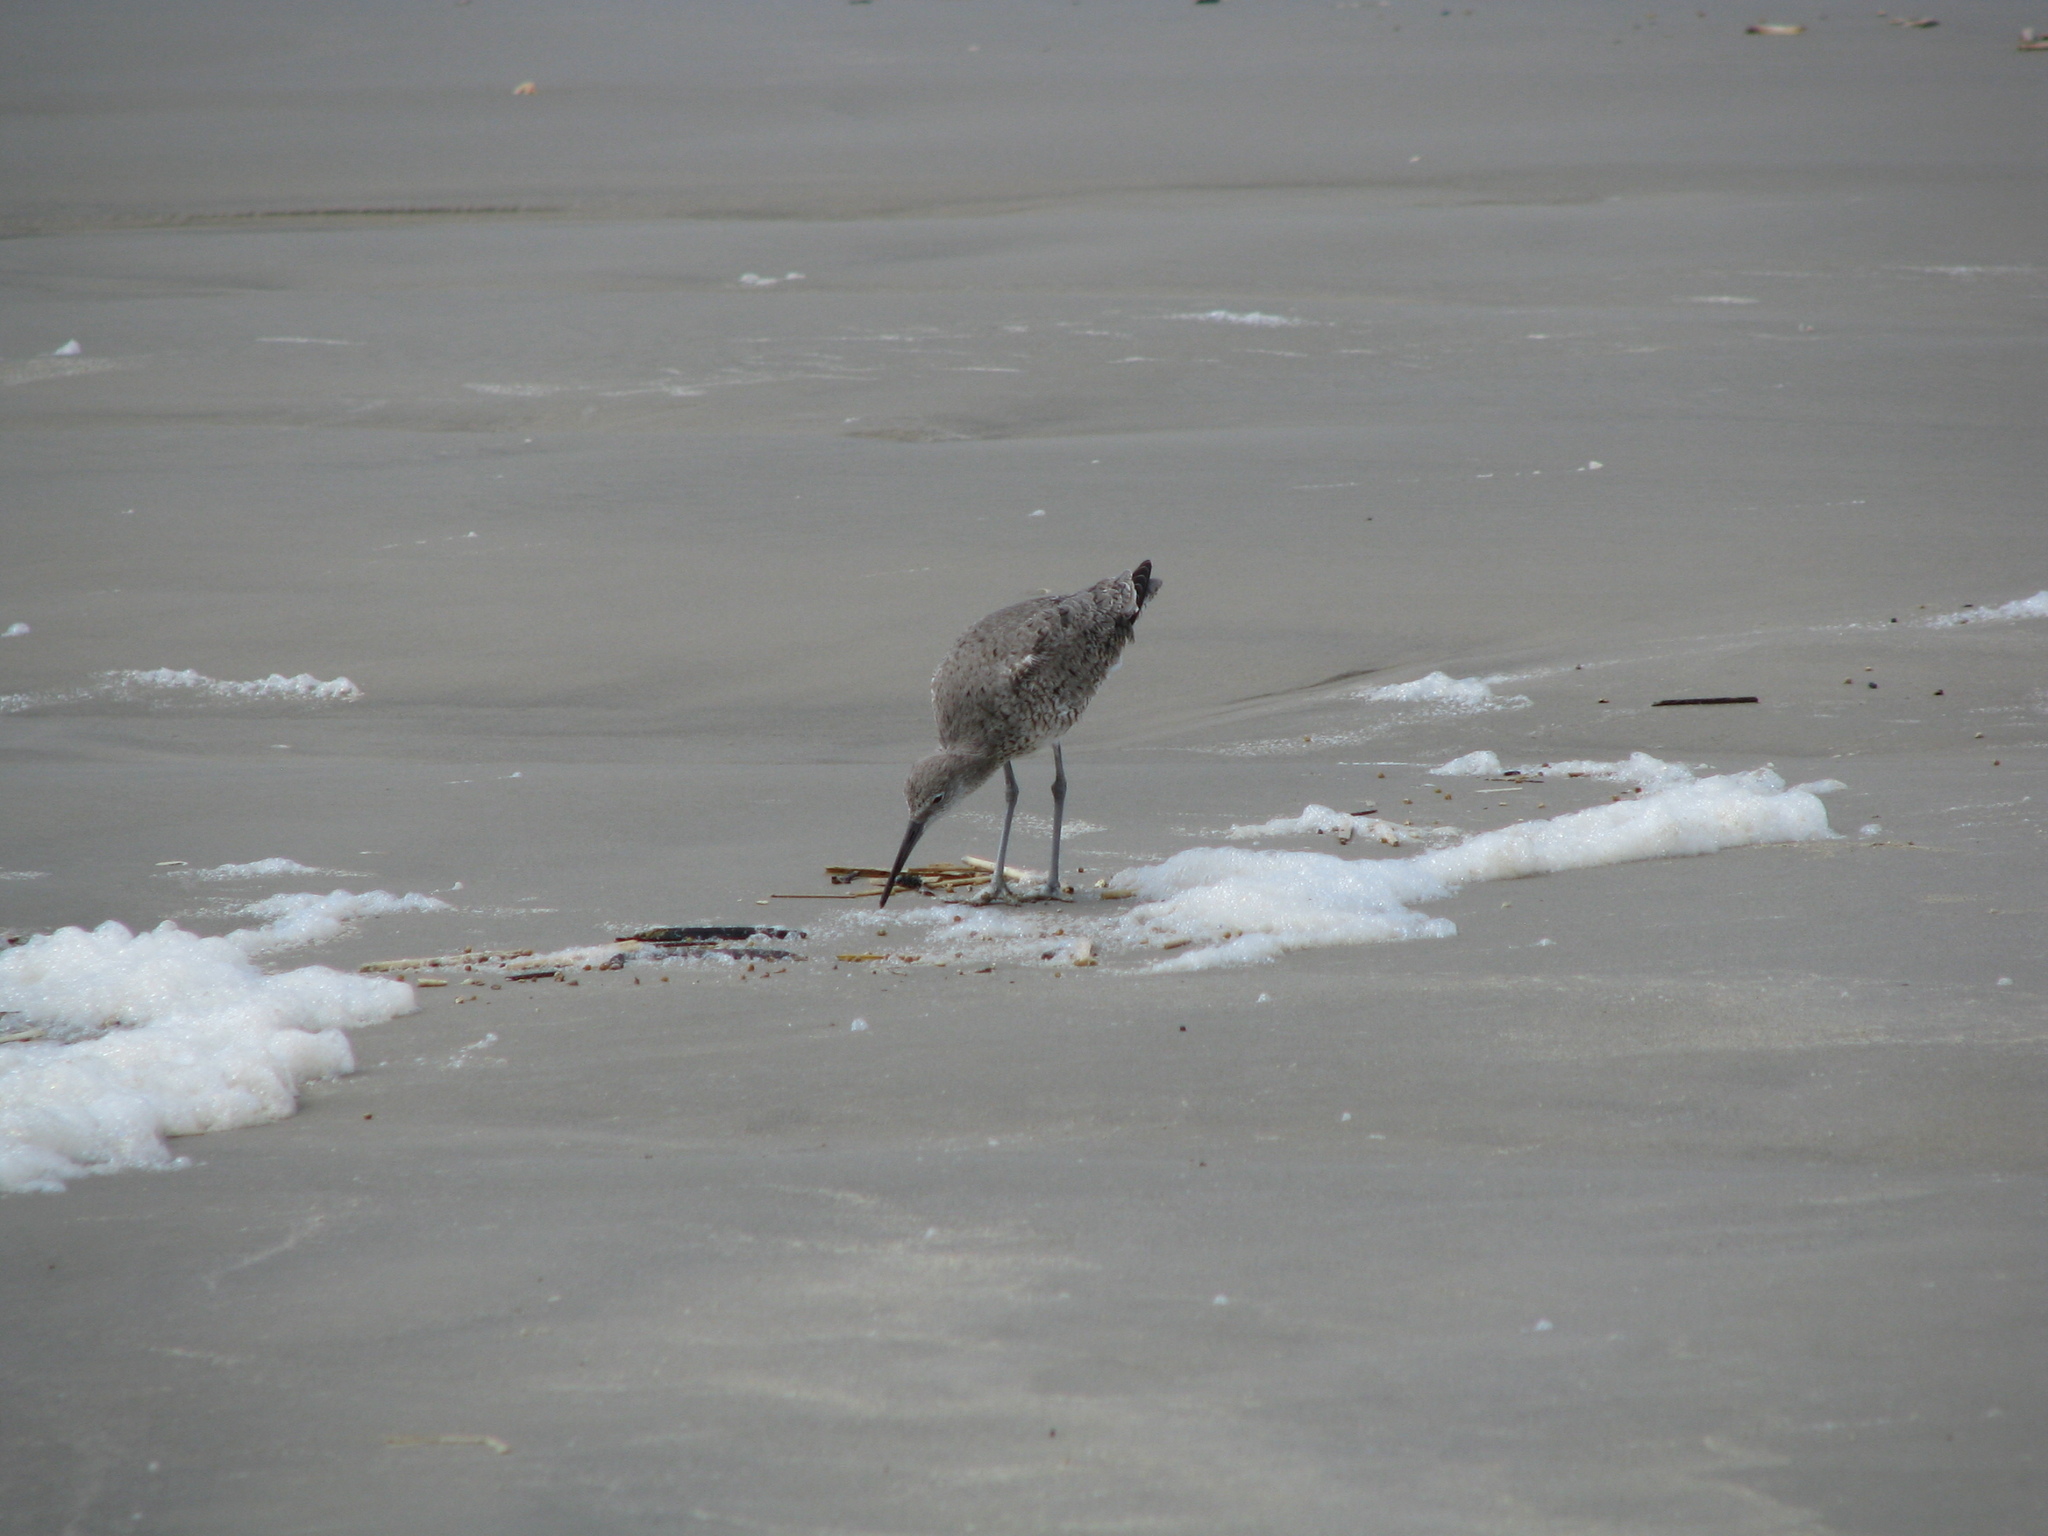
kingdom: Animalia
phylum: Chordata
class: Aves
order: Charadriiformes
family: Scolopacidae
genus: Tringa
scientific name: Tringa semipalmata
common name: Willet
